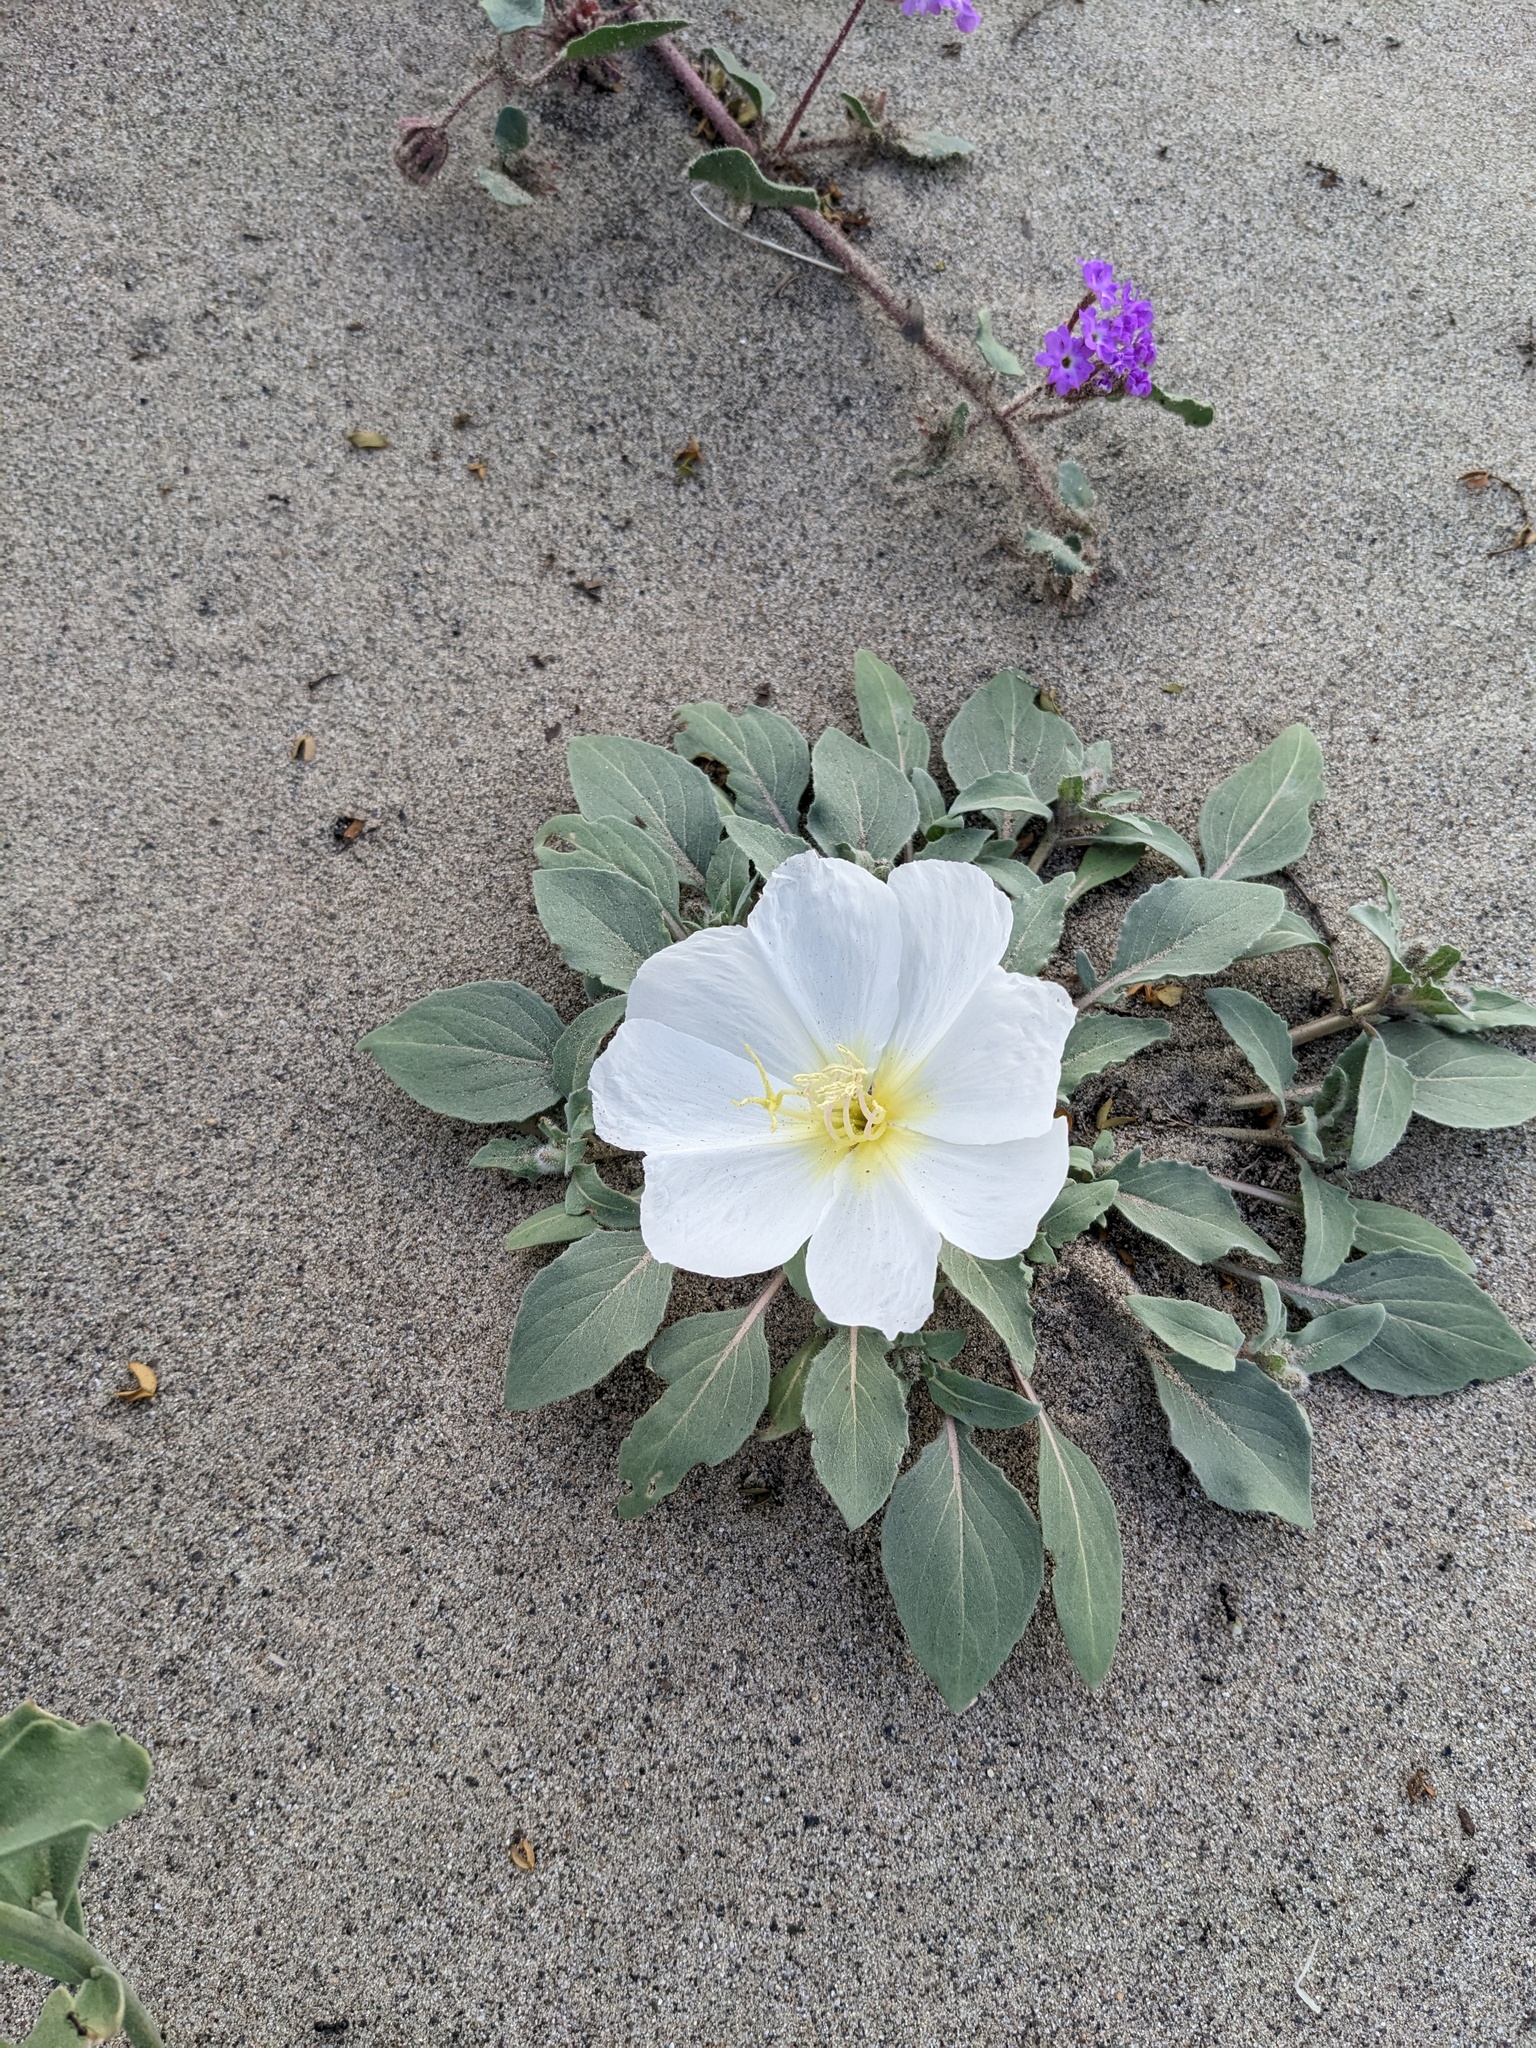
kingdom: Plantae
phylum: Tracheophyta
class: Magnoliopsida
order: Myrtales
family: Onagraceae
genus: Oenothera
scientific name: Oenothera deltoides
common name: Basket evening-primrose
